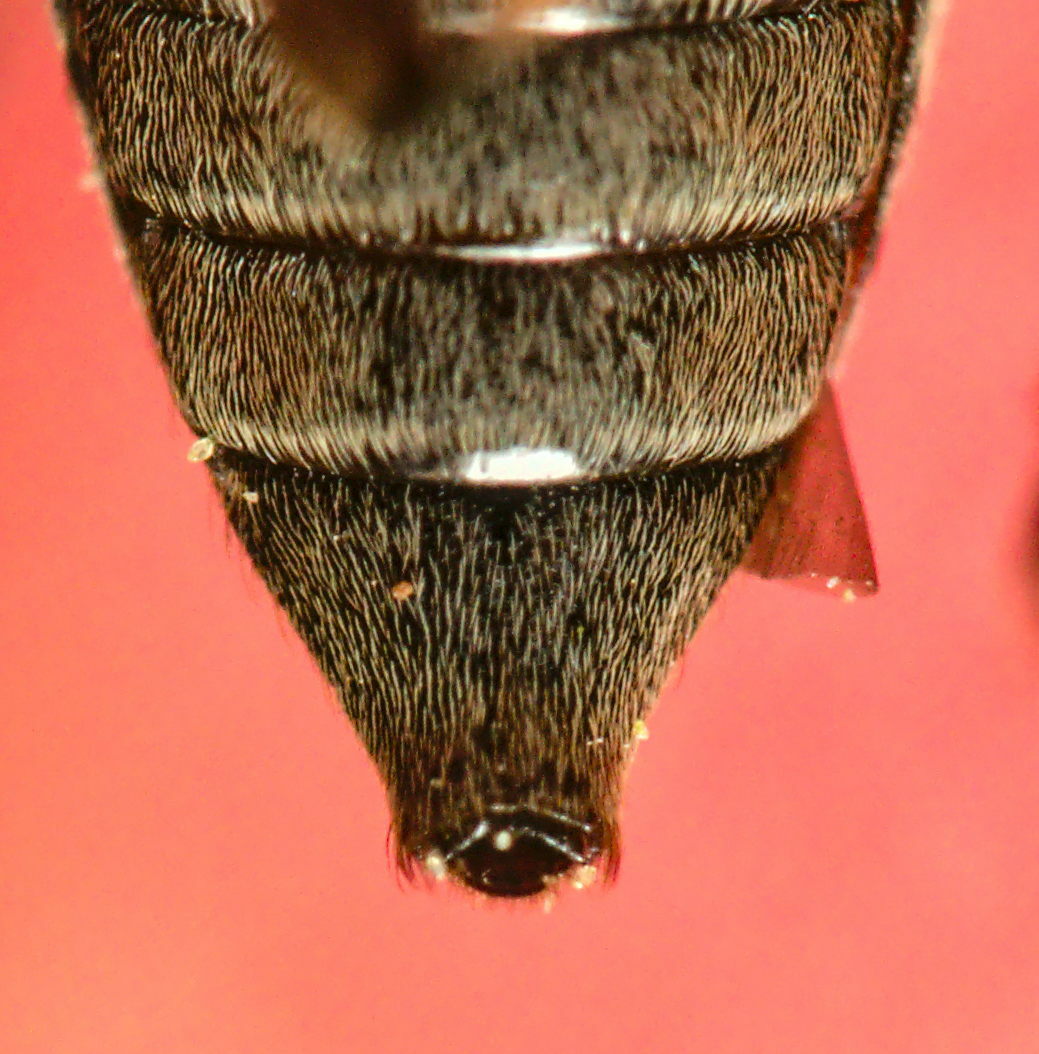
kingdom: Animalia
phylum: Arthropoda
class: Insecta
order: Coleoptera
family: Cerambycidae
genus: Leiopus
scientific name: Leiopus femoratus
